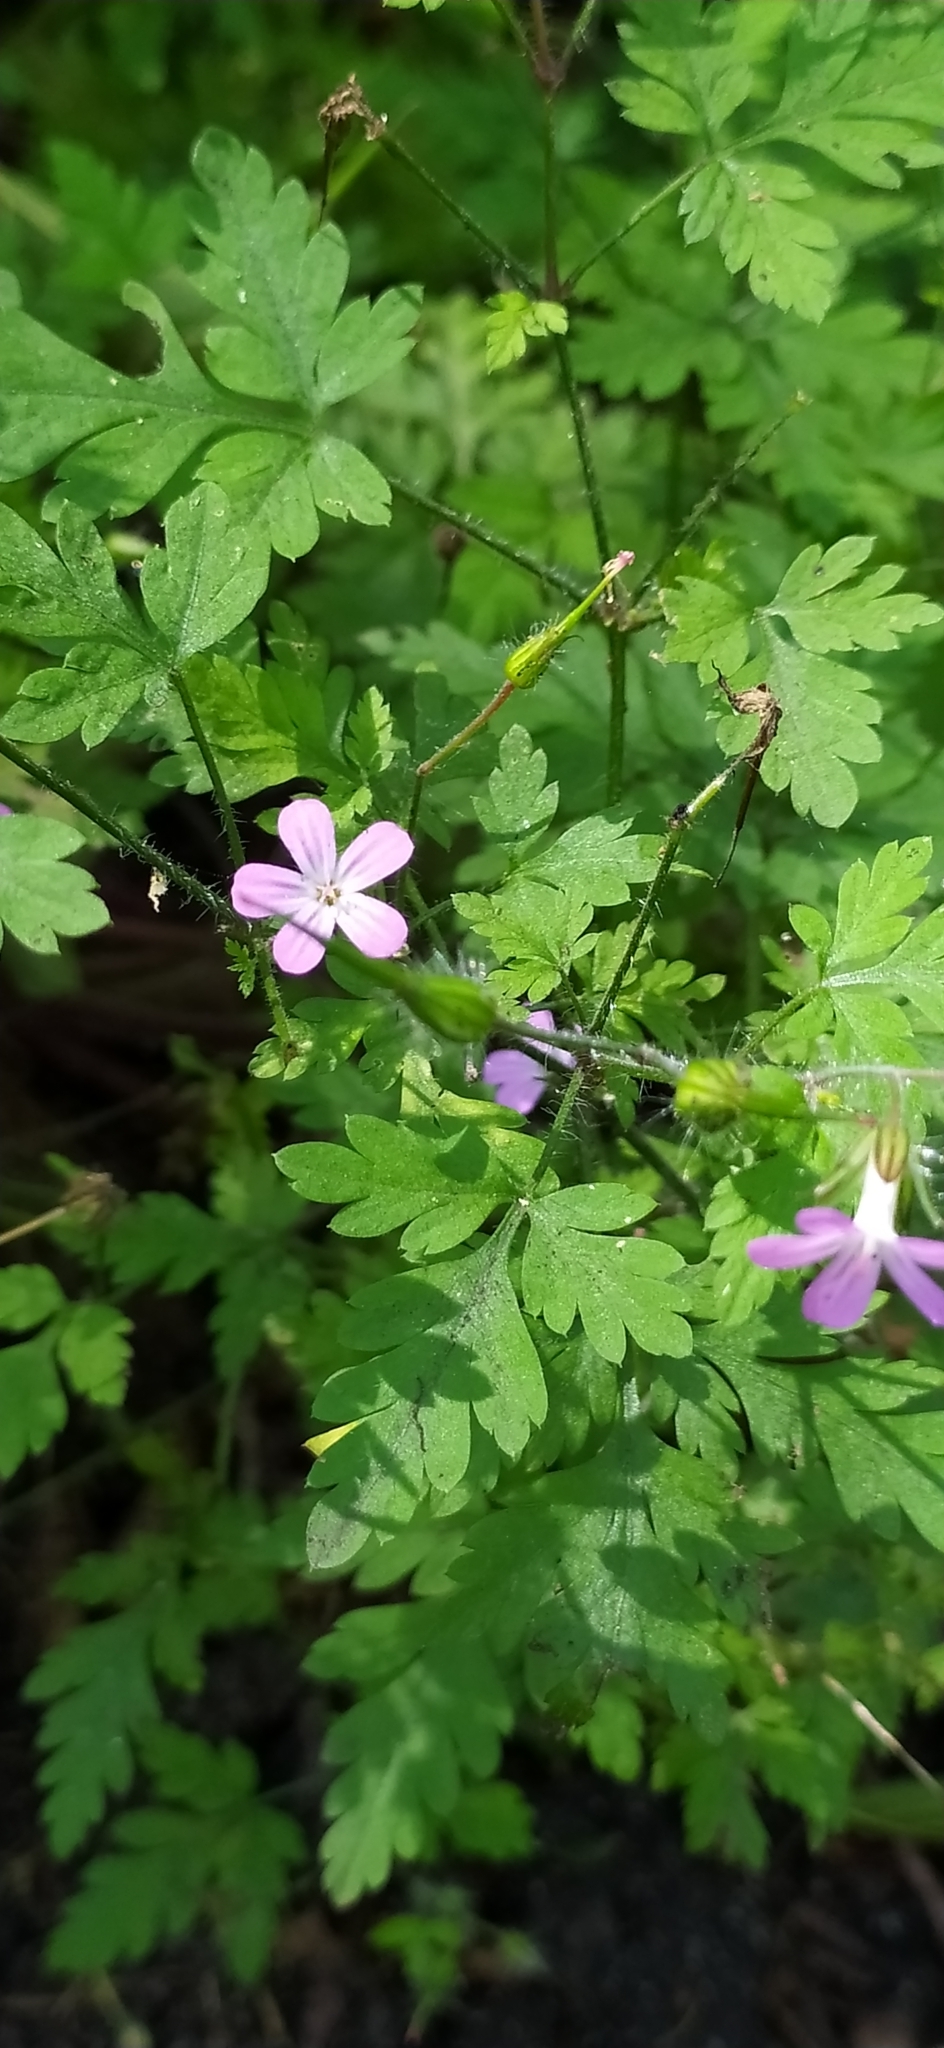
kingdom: Plantae
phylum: Tracheophyta
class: Magnoliopsida
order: Geraniales
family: Geraniaceae
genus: Geranium
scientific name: Geranium robertianum
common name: Herb-robert
